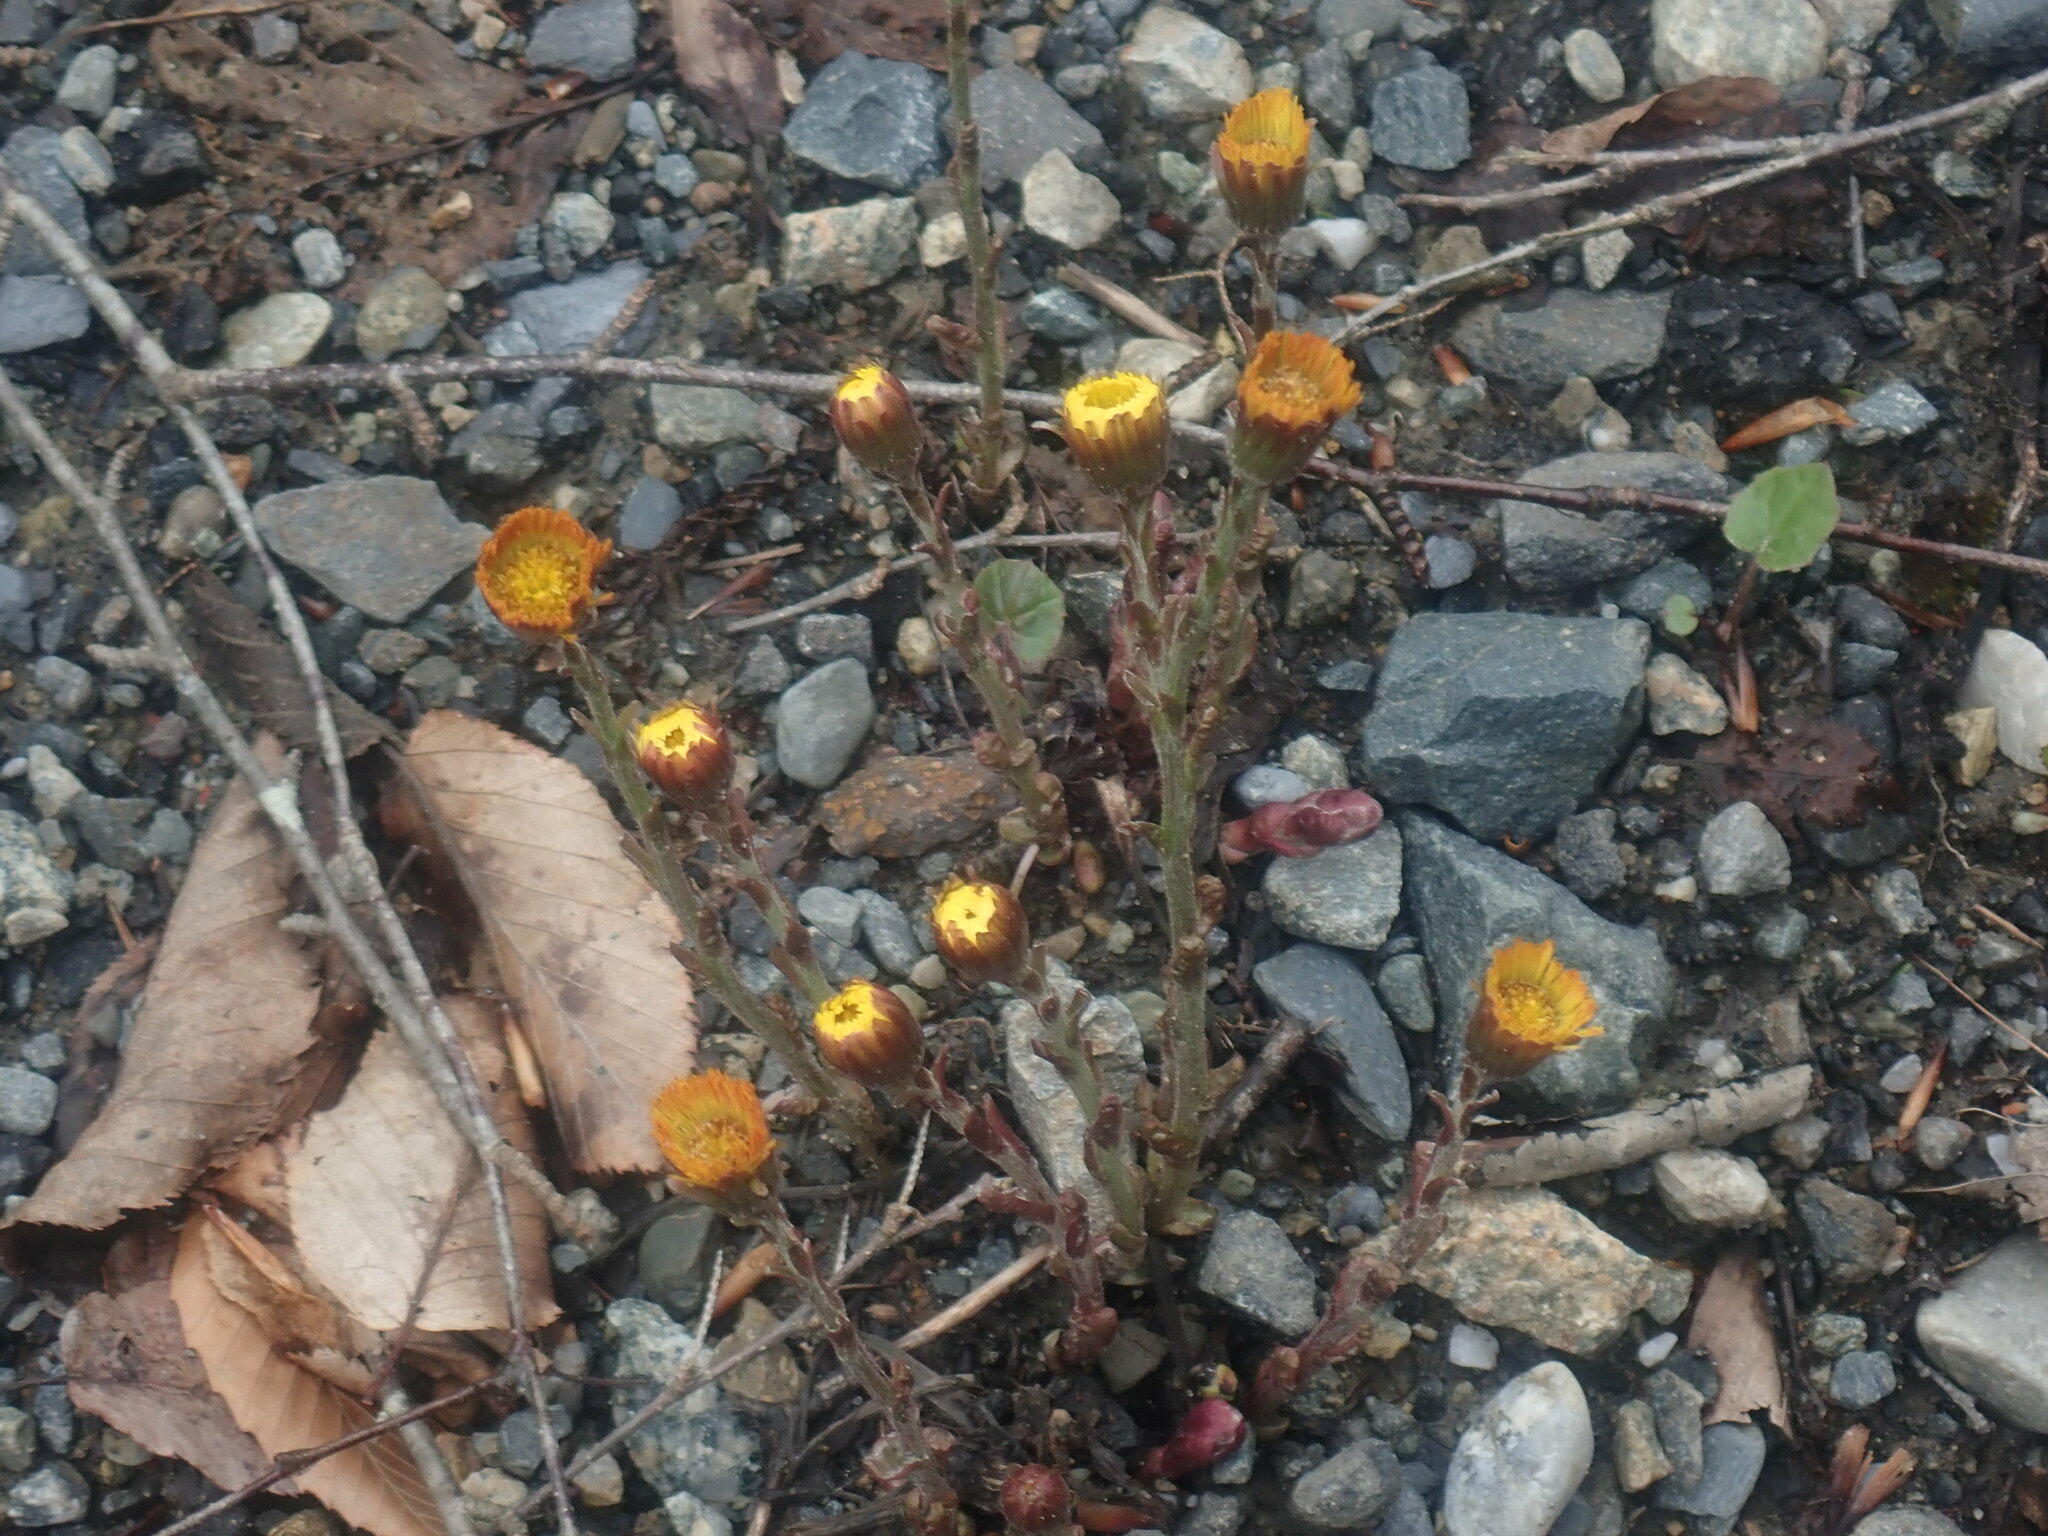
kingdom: Plantae
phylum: Tracheophyta
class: Magnoliopsida
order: Asterales
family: Asteraceae
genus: Tussilago
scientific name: Tussilago farfara
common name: Coltsfoot
